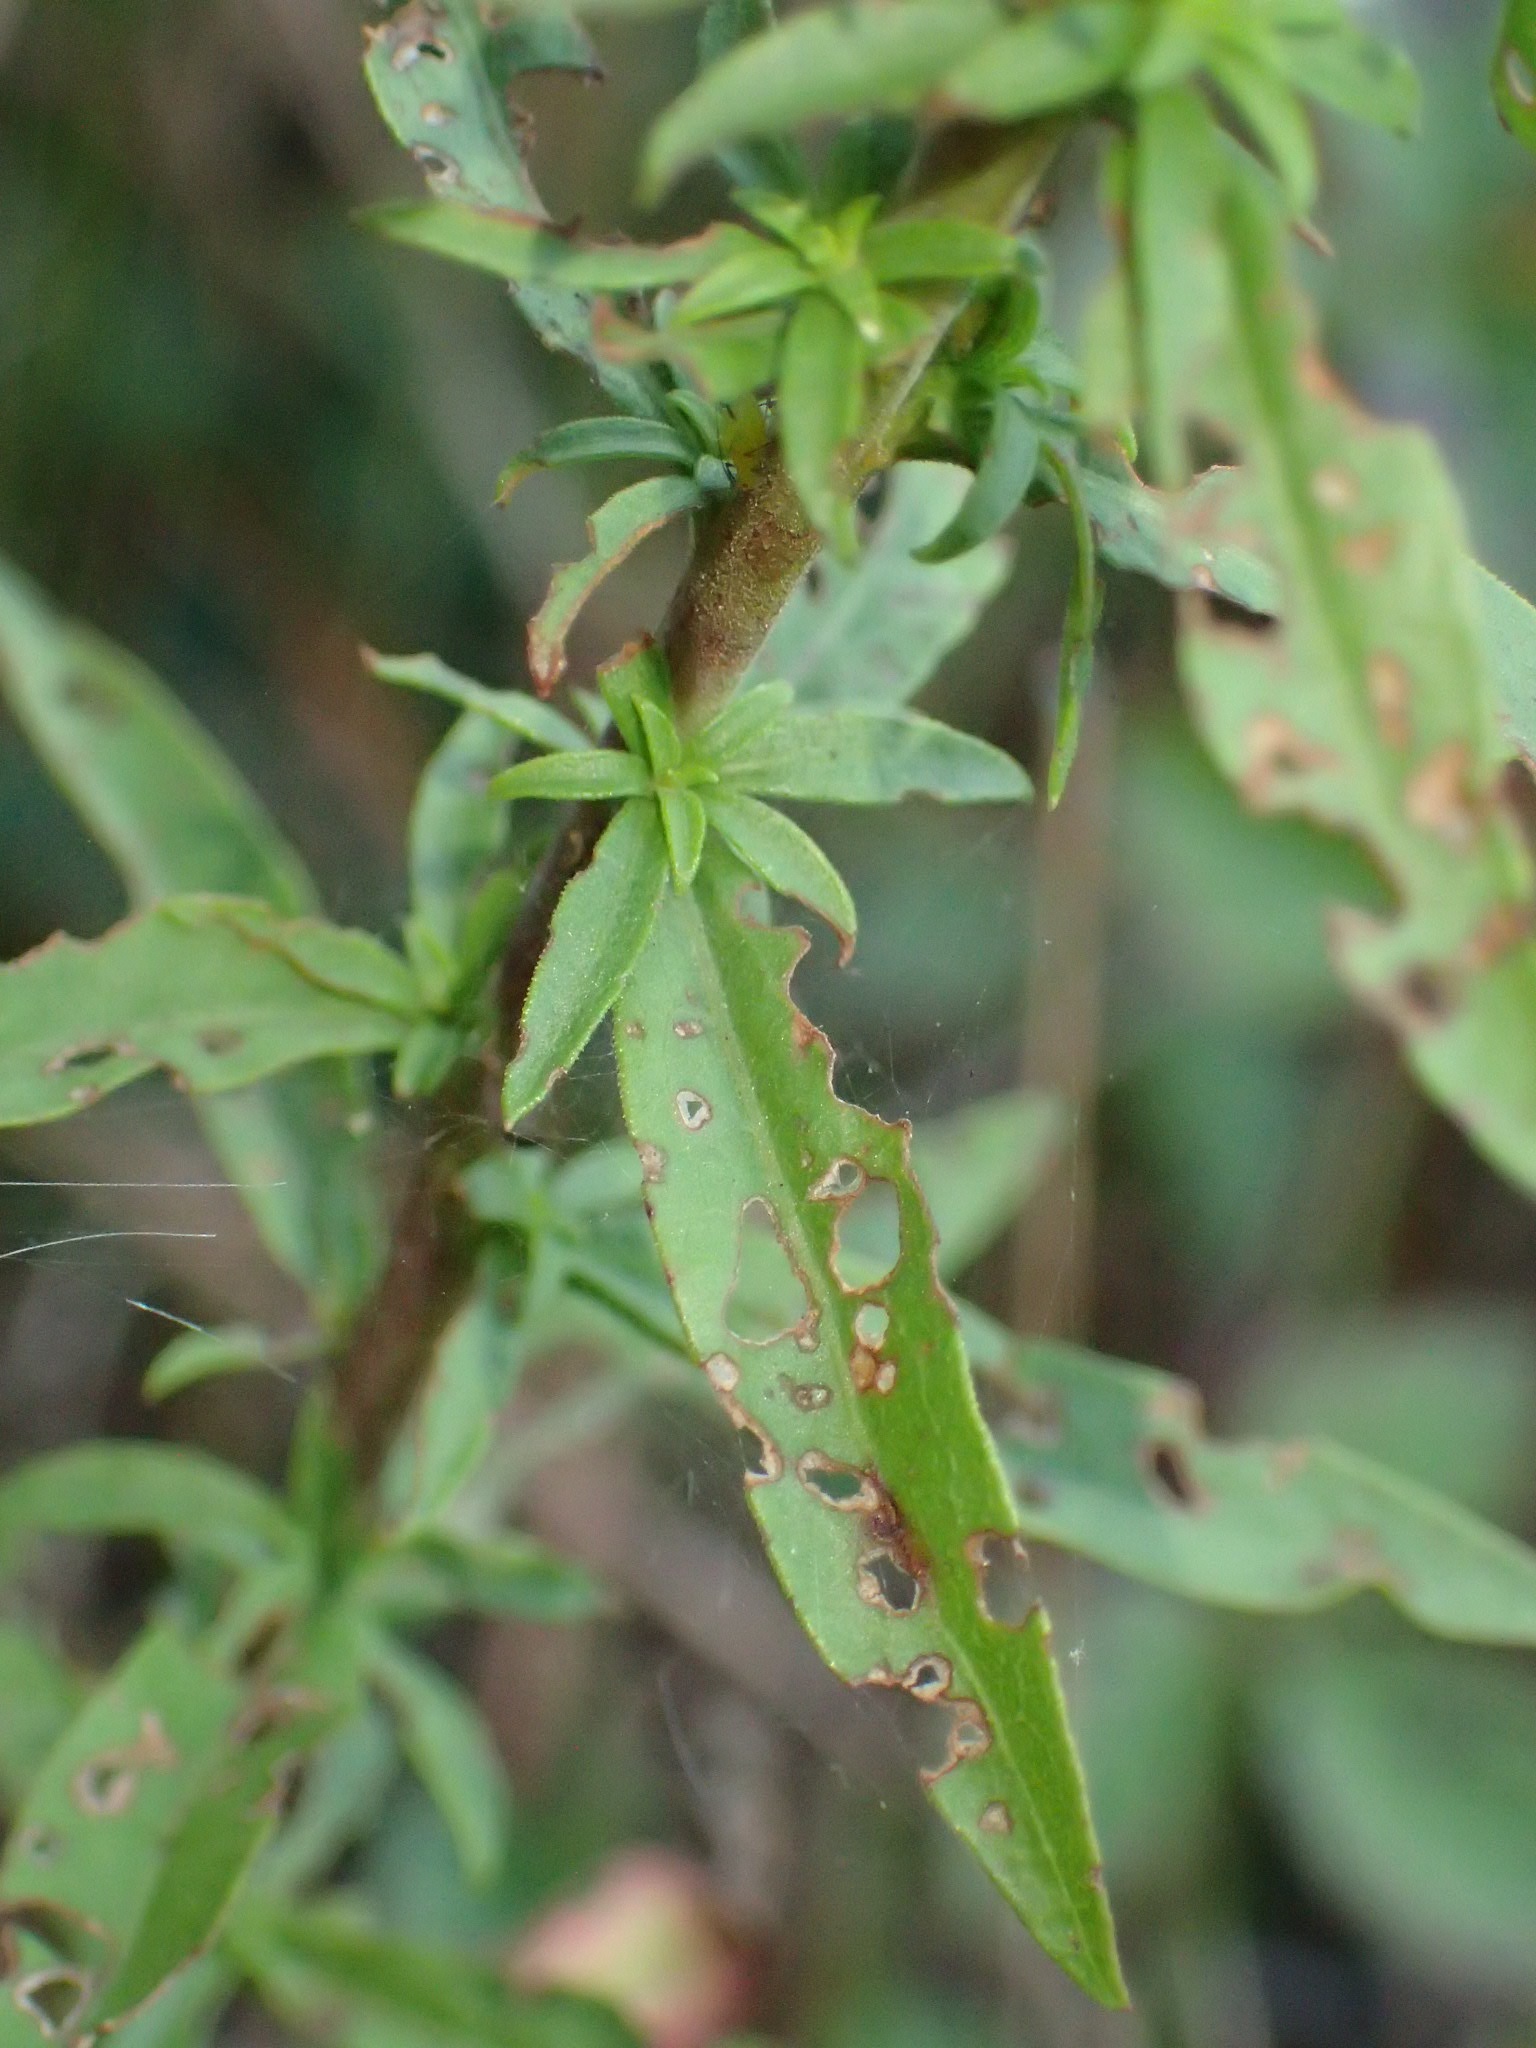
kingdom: Plantae
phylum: Tracheophyta
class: Magnoliopsida
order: Asterales
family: Asteraceae
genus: Solidago
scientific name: Solidago puberula
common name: Downy goldenrod
